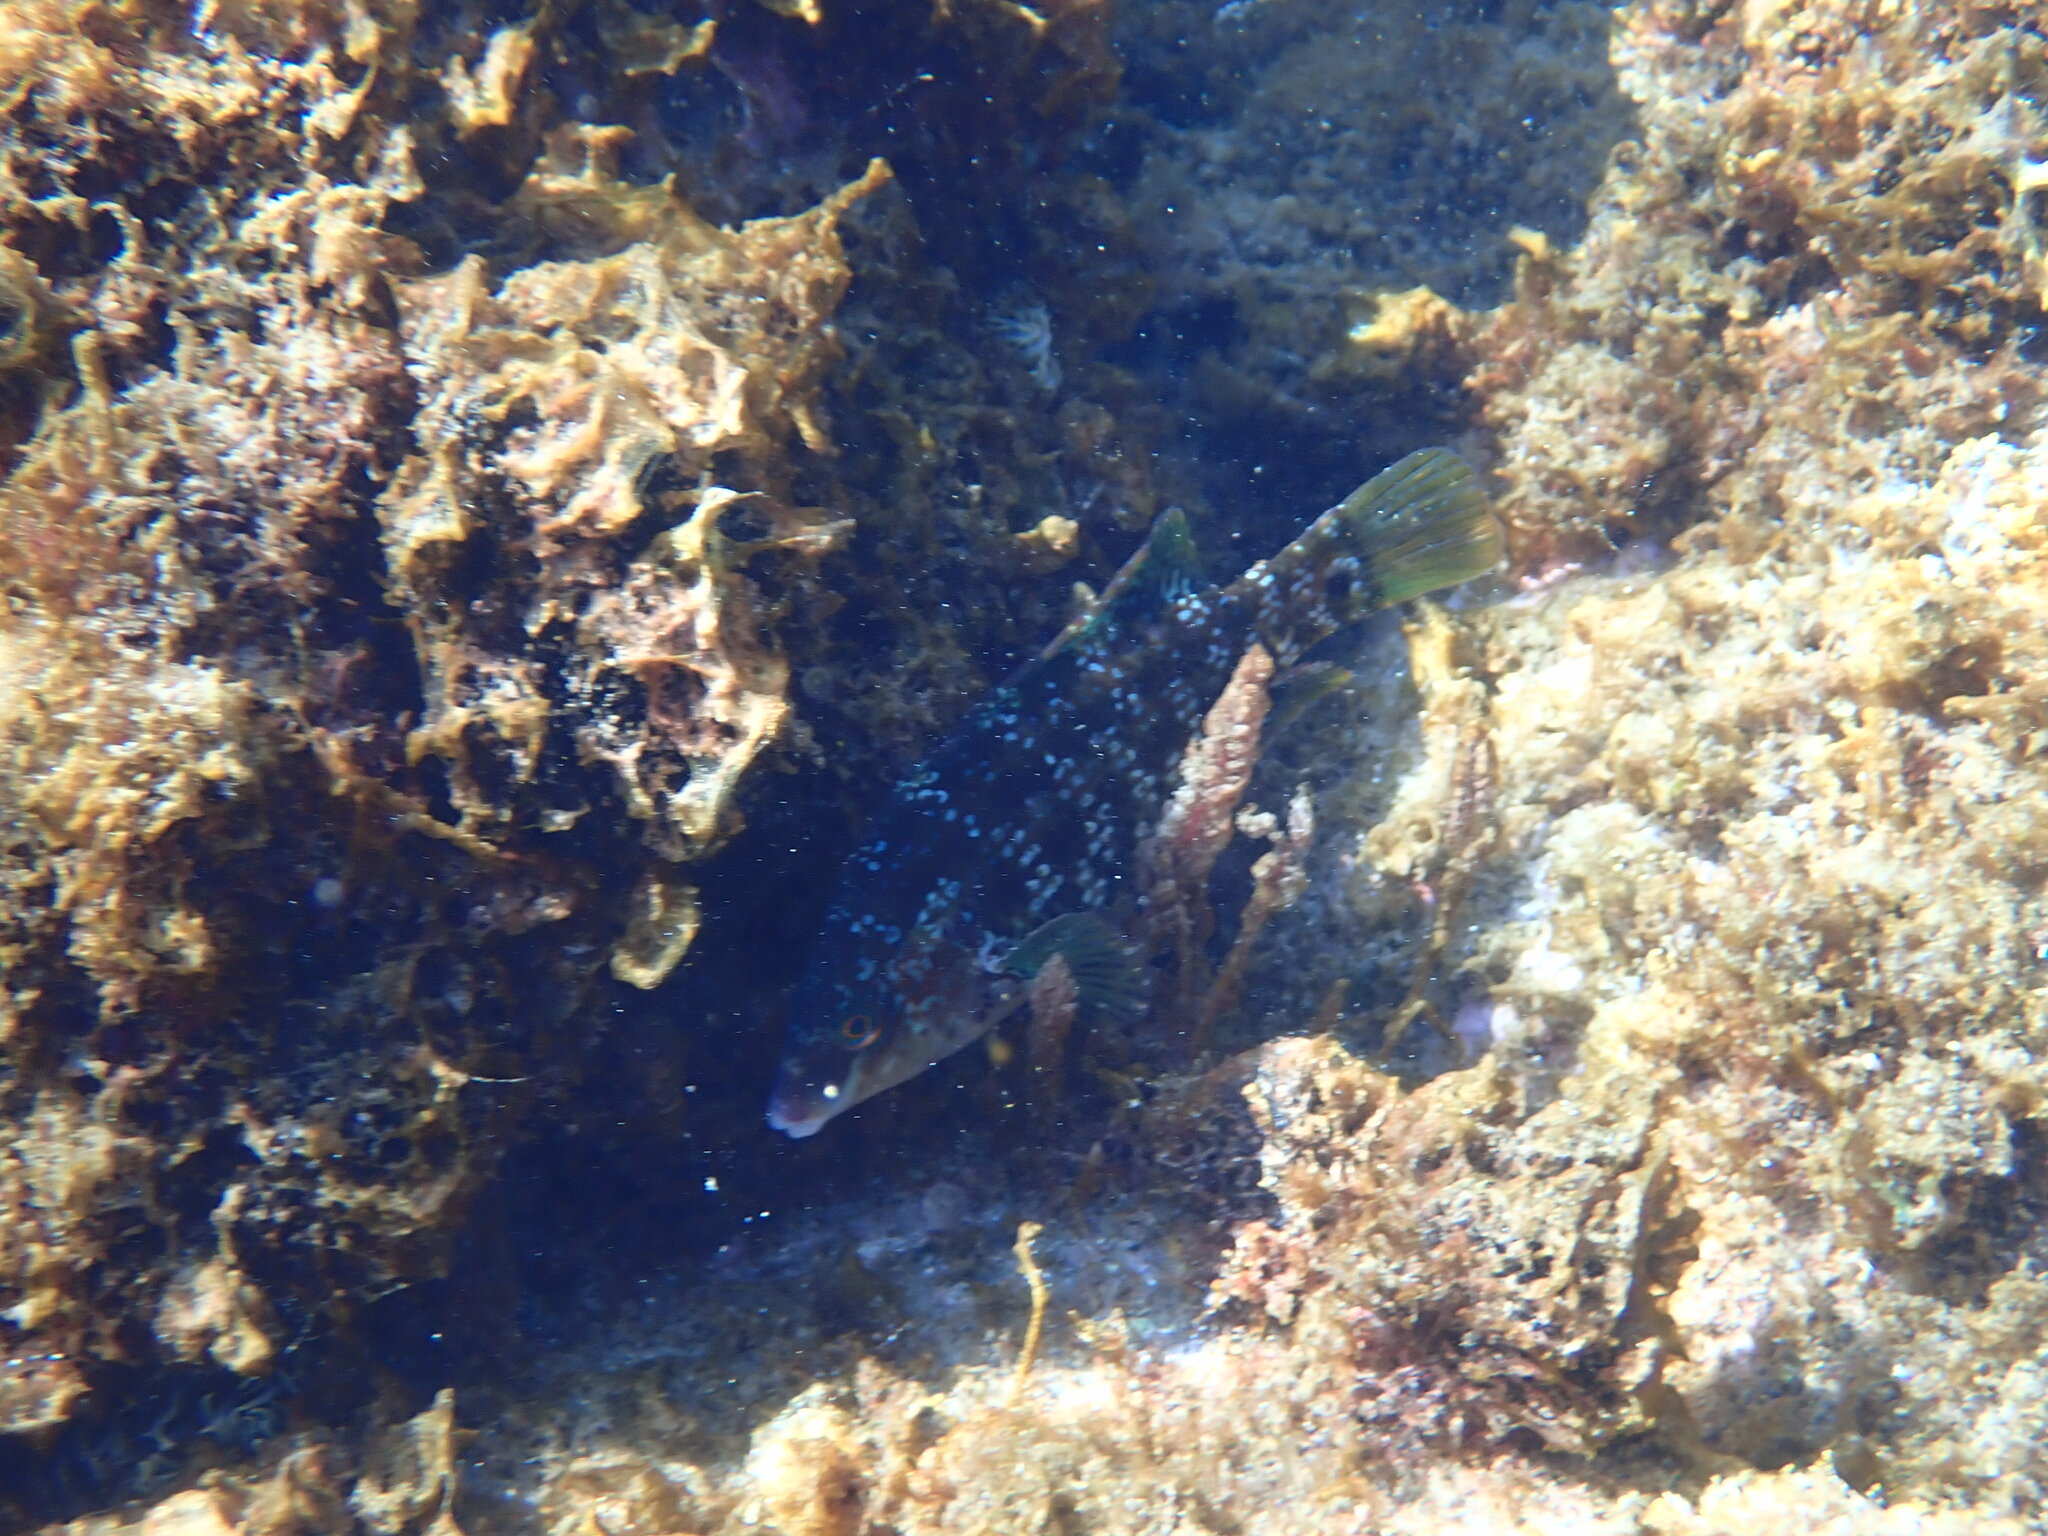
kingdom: Animalia
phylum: Chordata
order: Perciformes
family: Labridae
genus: Symphodus
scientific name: Symphodus caeruleus
